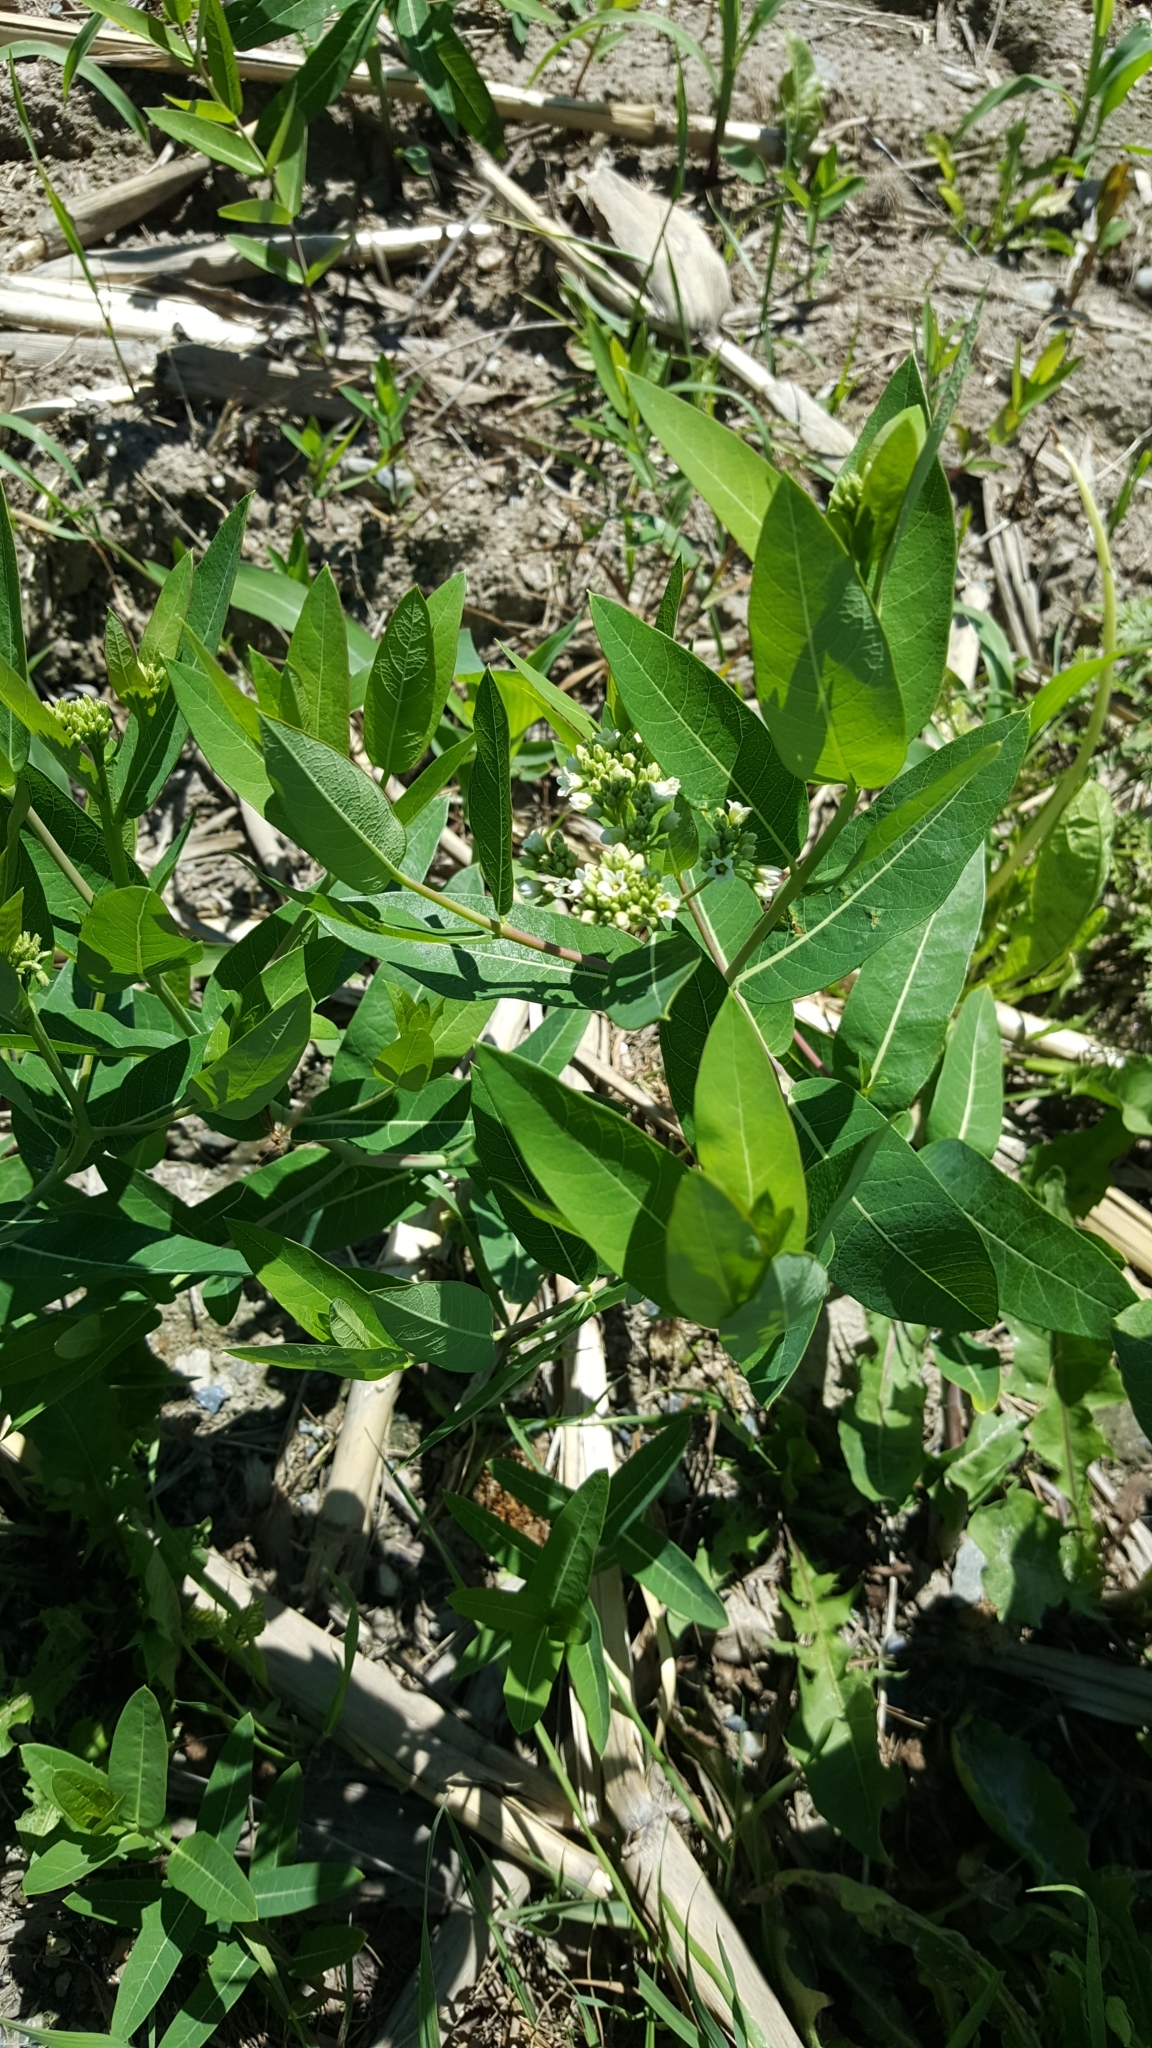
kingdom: Plantae
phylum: Tracheophyta
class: Magnoliopsida
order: Gentianales
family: Apocynaceae
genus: Apocynum
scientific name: Apocynum cannabinum
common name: Hemp dogbane
